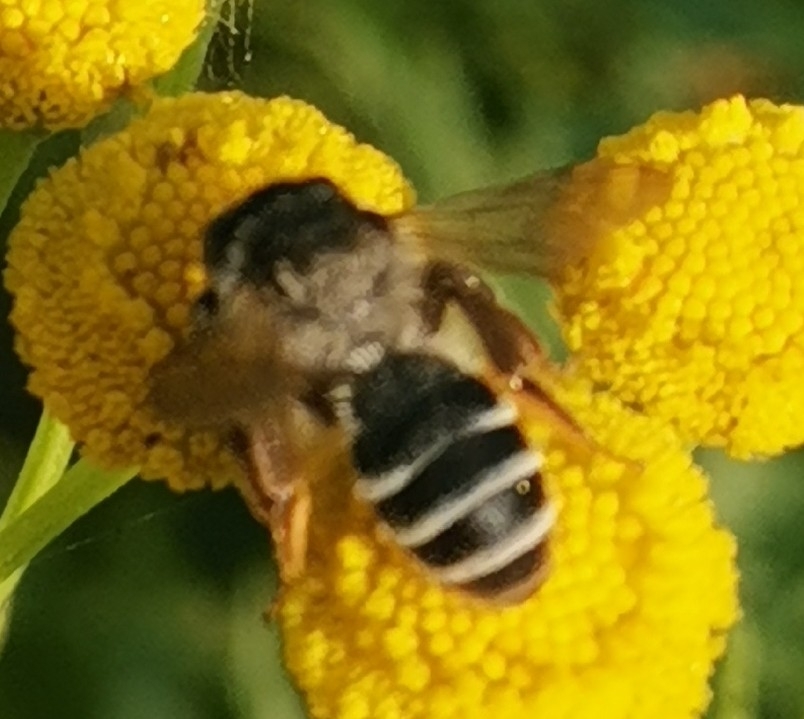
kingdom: Animalia
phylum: Arthropoda
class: Insecta
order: Hymenoptera
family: Andrenidae
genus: Andrena
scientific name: Andrena denticulata
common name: Grey-banded mining bee
